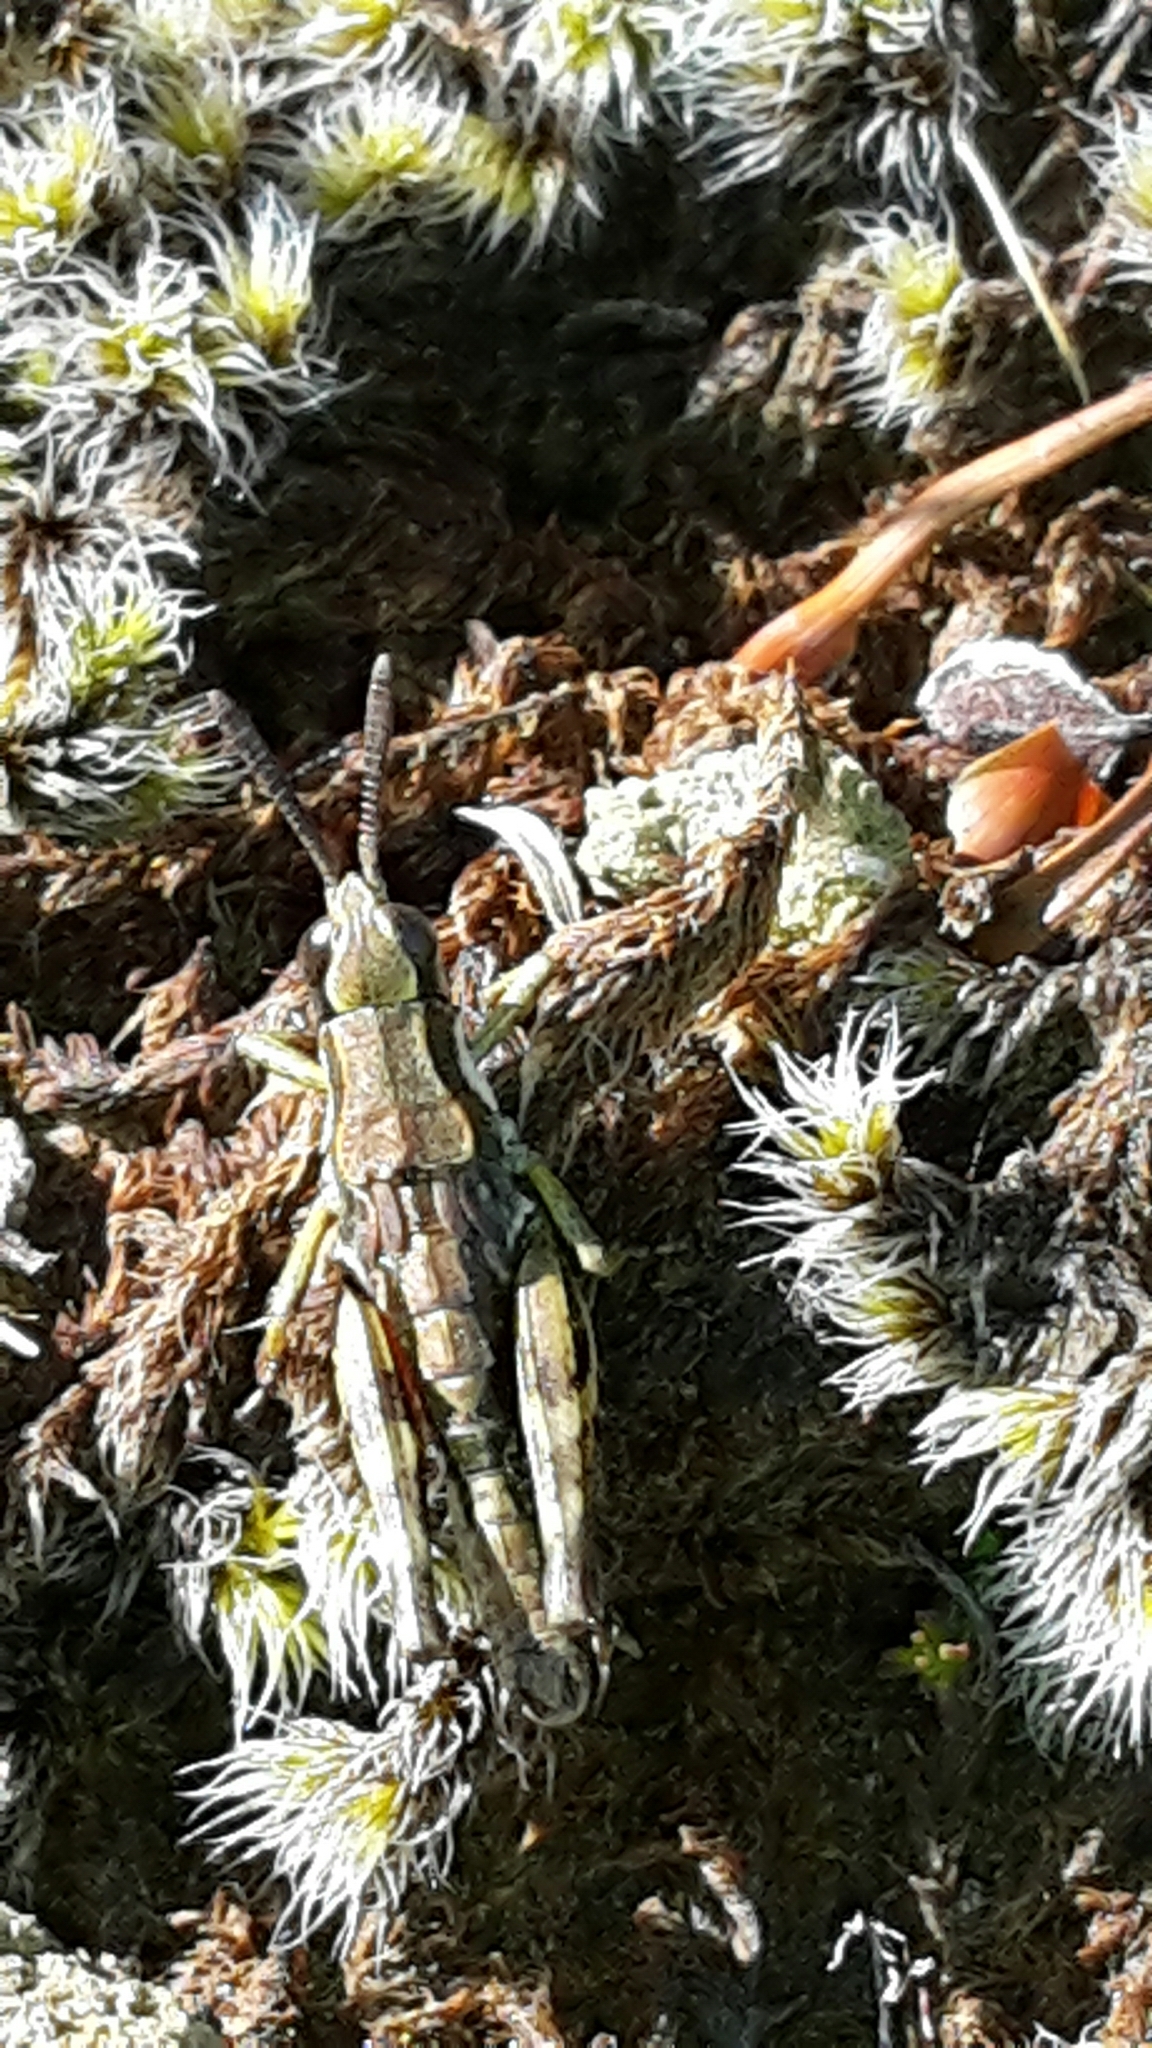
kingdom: Animalia
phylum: Arthropoda
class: Insecta
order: Orthoptera
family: Acrididae
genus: Sigaus
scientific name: Sigaus piliferus
